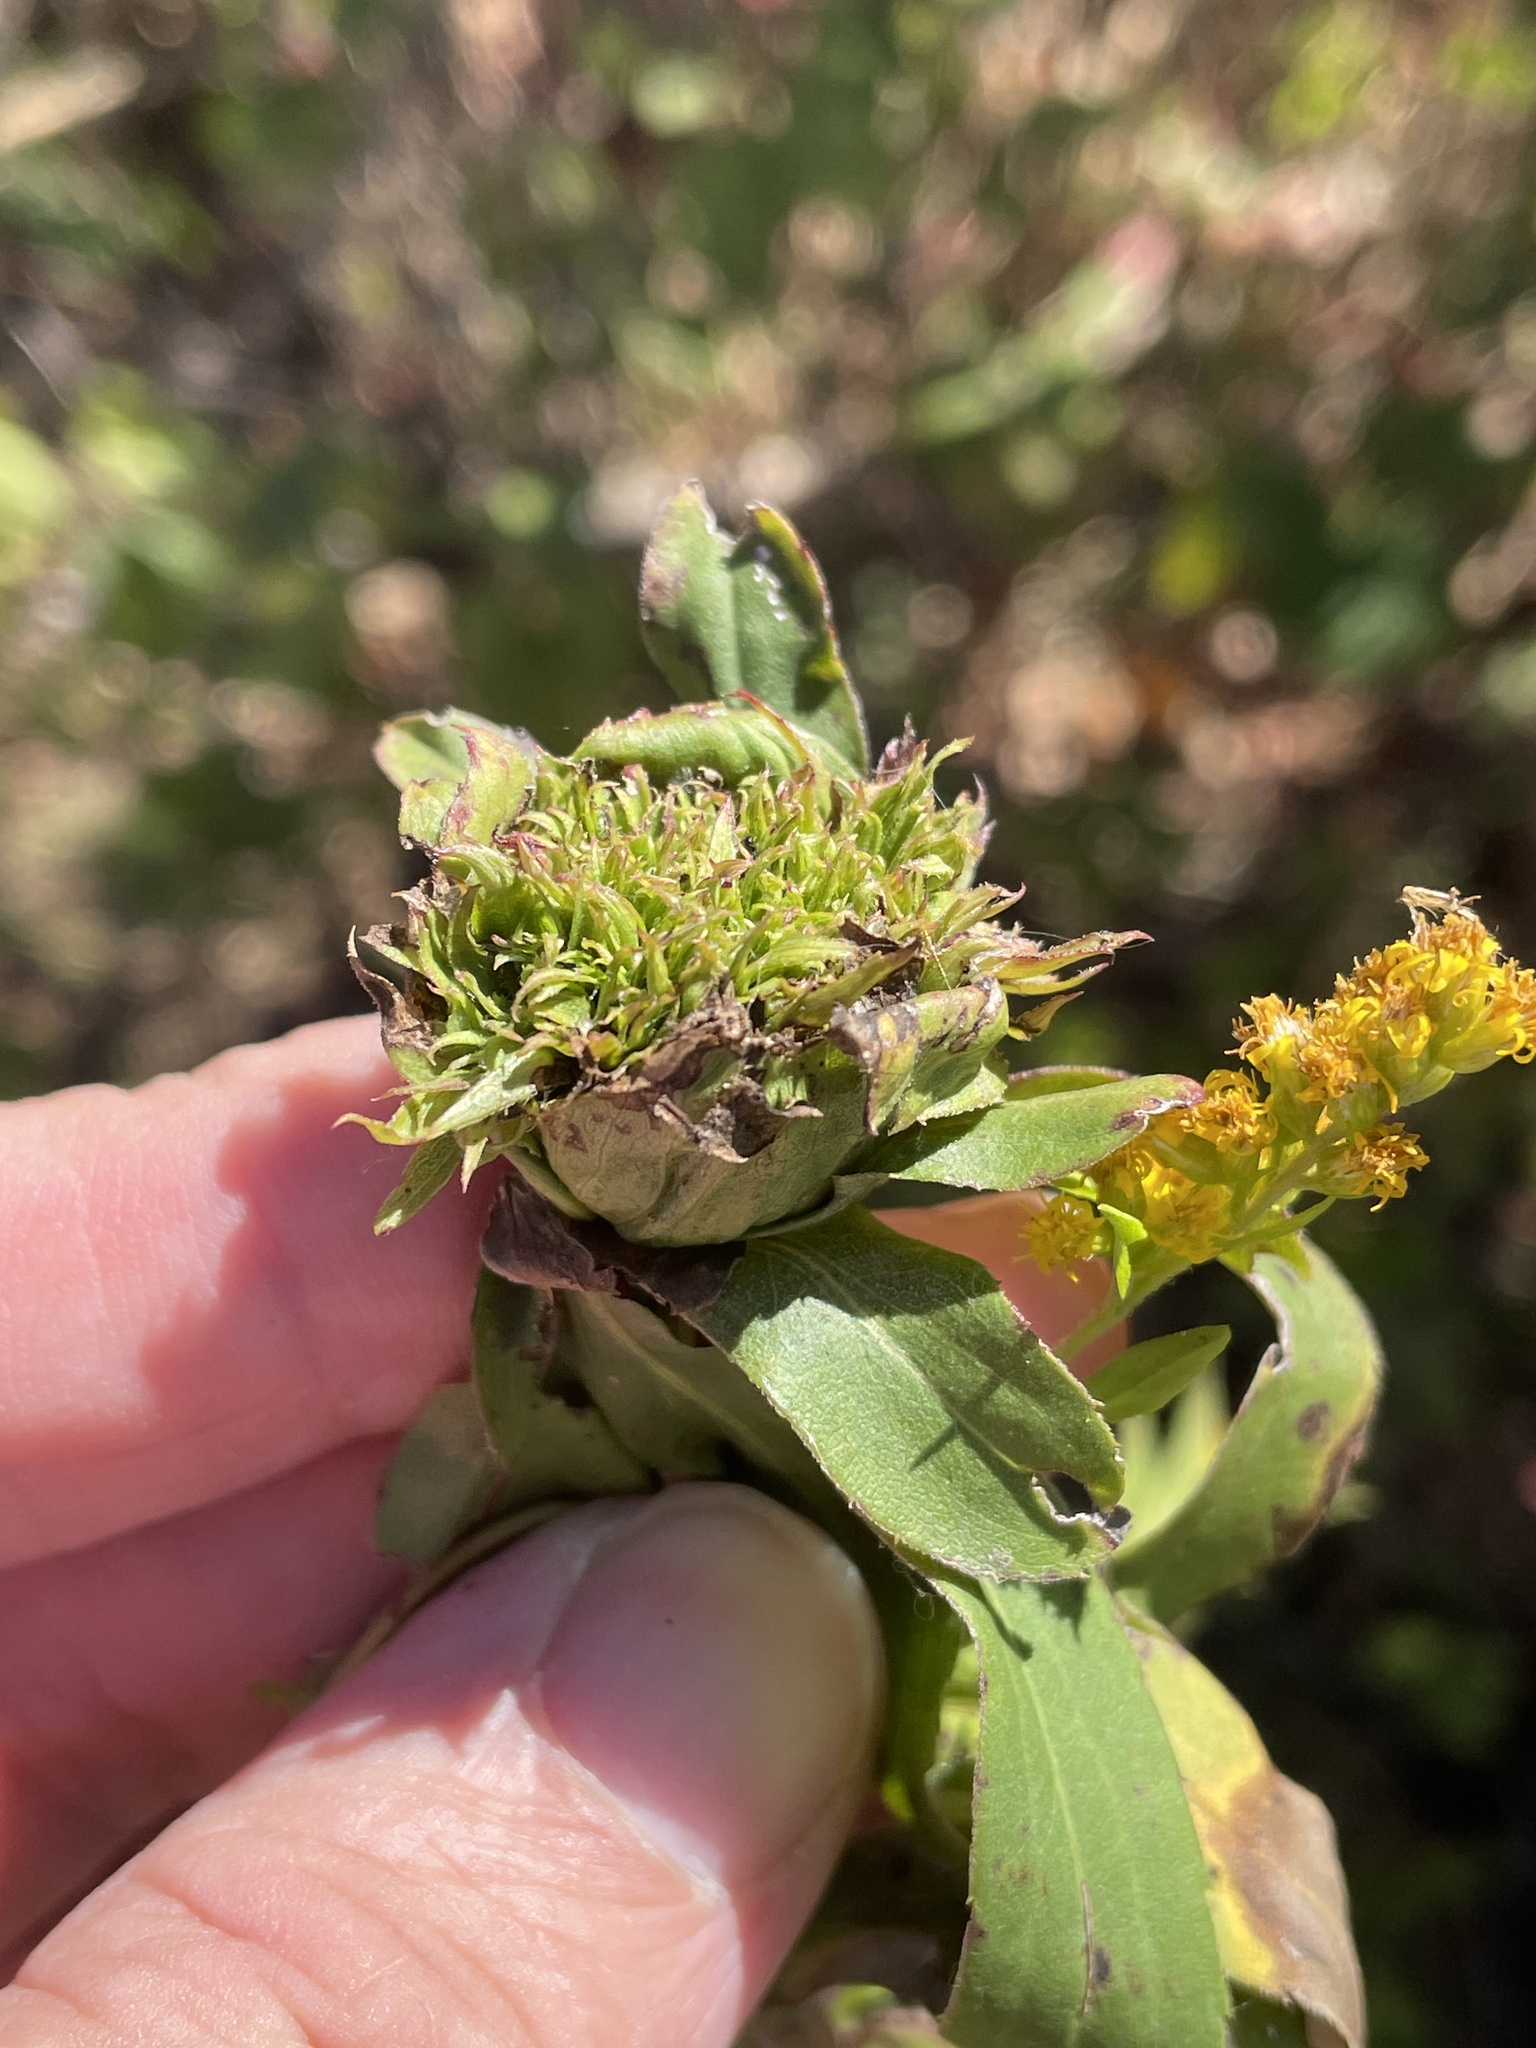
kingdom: Animalia
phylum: Arthropoda
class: Insecta
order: Diptera
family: Cecidomyiidae
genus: Rhopalomyia
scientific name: Rhopalomyia capitata
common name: Giant goldenrod bunch gall midge
